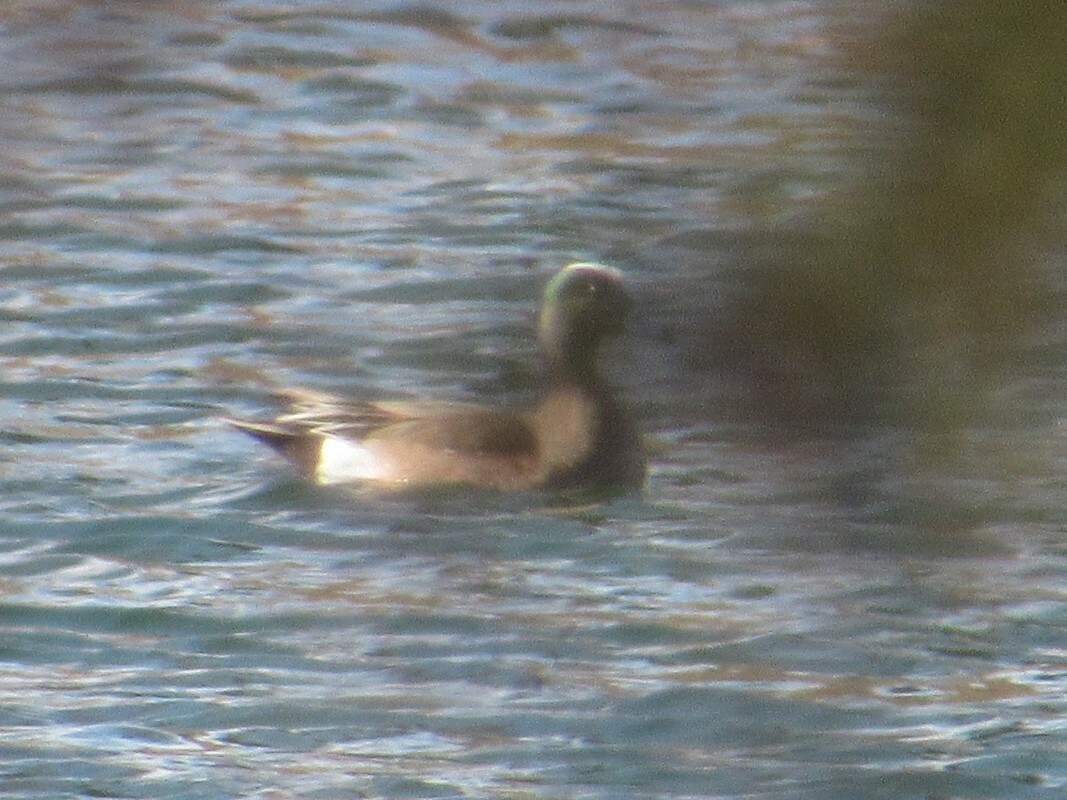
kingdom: Animalia
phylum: Chordata
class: Aves
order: Anseriformes
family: Anatidae
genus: Mareca
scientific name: Mareca americana
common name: American wigeon
